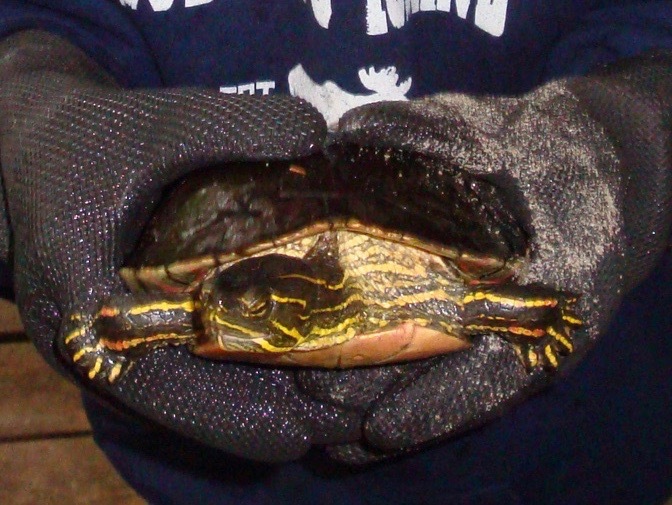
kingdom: Animalia
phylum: Chordata
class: Testudines
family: Emydidae
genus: Chrysemys
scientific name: Chrysemys picta
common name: Painted turtle
